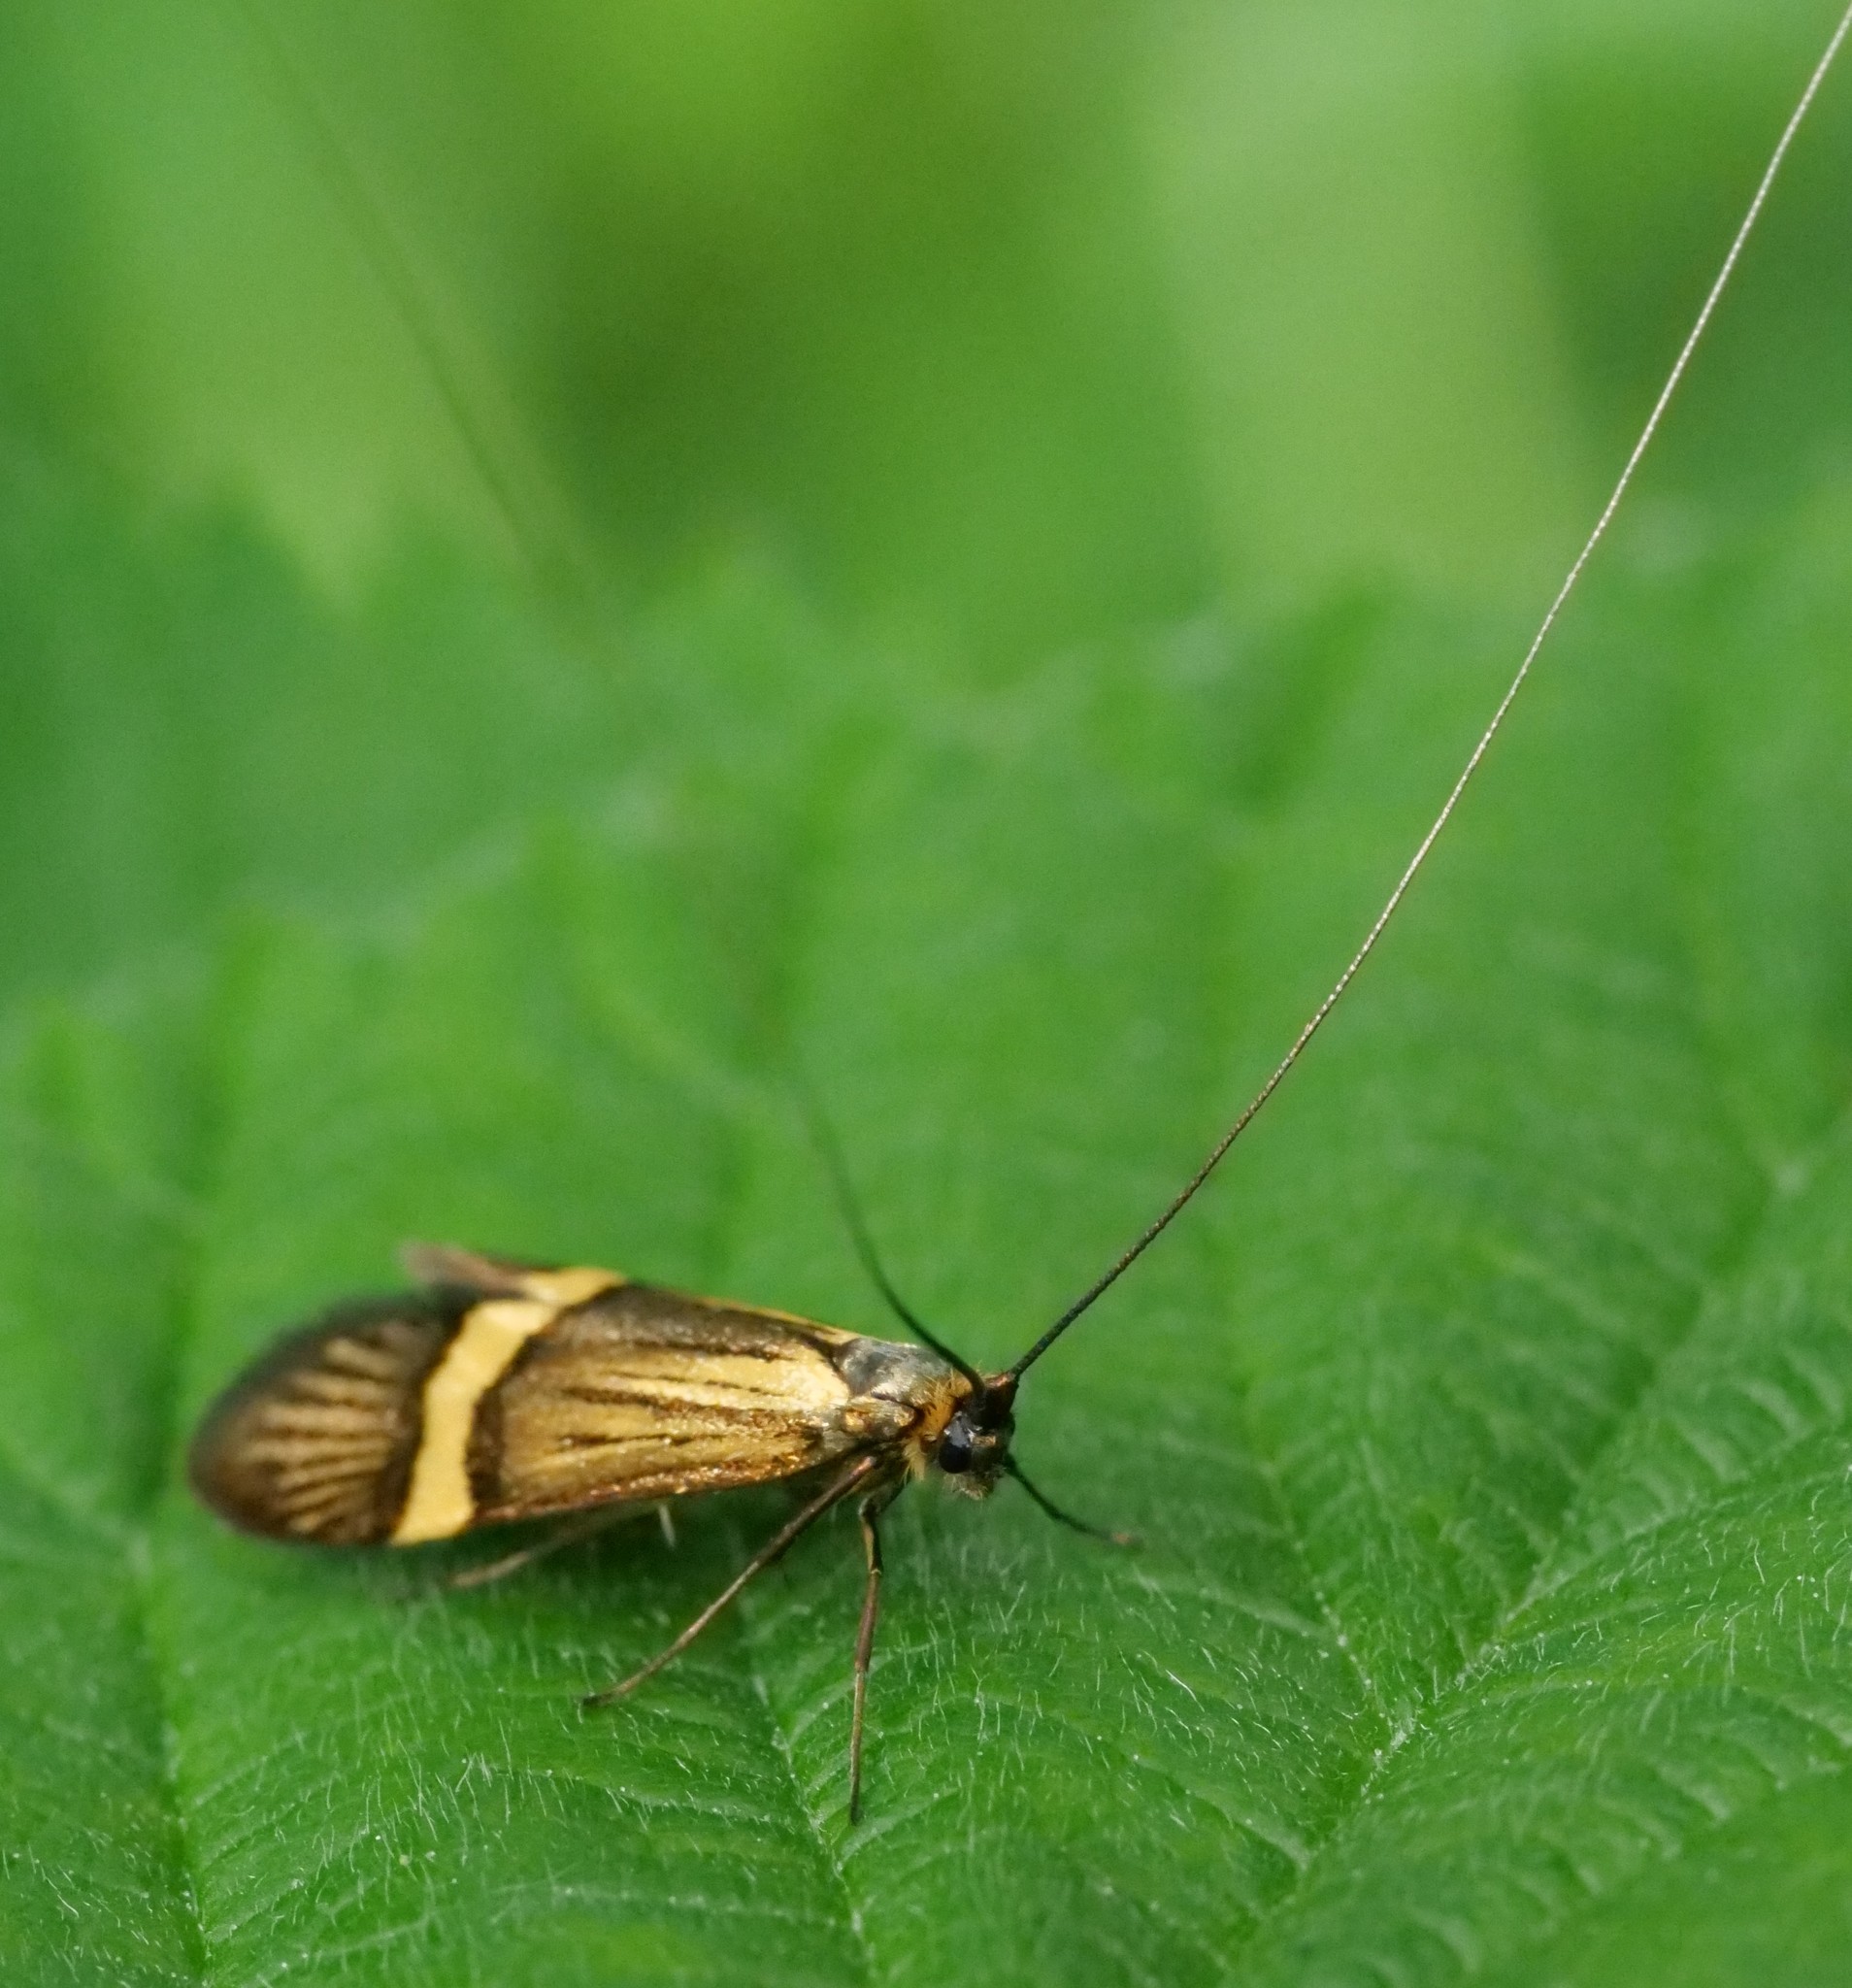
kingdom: Animalia
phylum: Arthropoda
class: Insecta
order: Lepidoptera
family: Adelidae
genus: Nemophora
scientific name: Nemophora degeerella
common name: Yellow-barred long-horn
